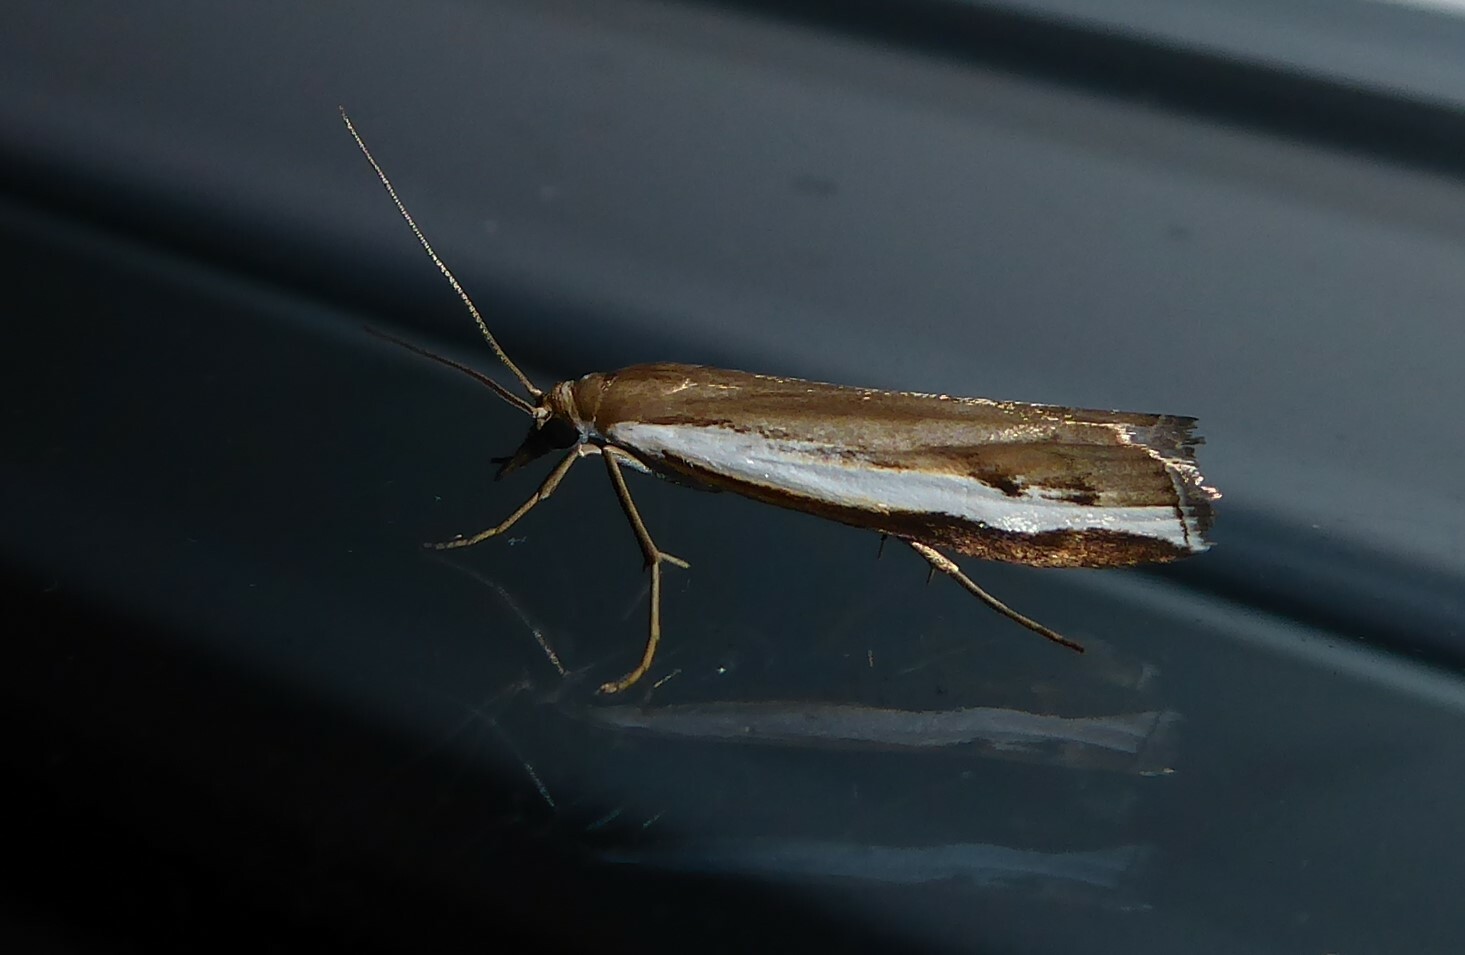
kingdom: Animalia
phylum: Arthropoda
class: Insecta
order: Lepidoptera
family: Crambidae
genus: Orocrambus
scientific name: Orocrambus flexuosellus
